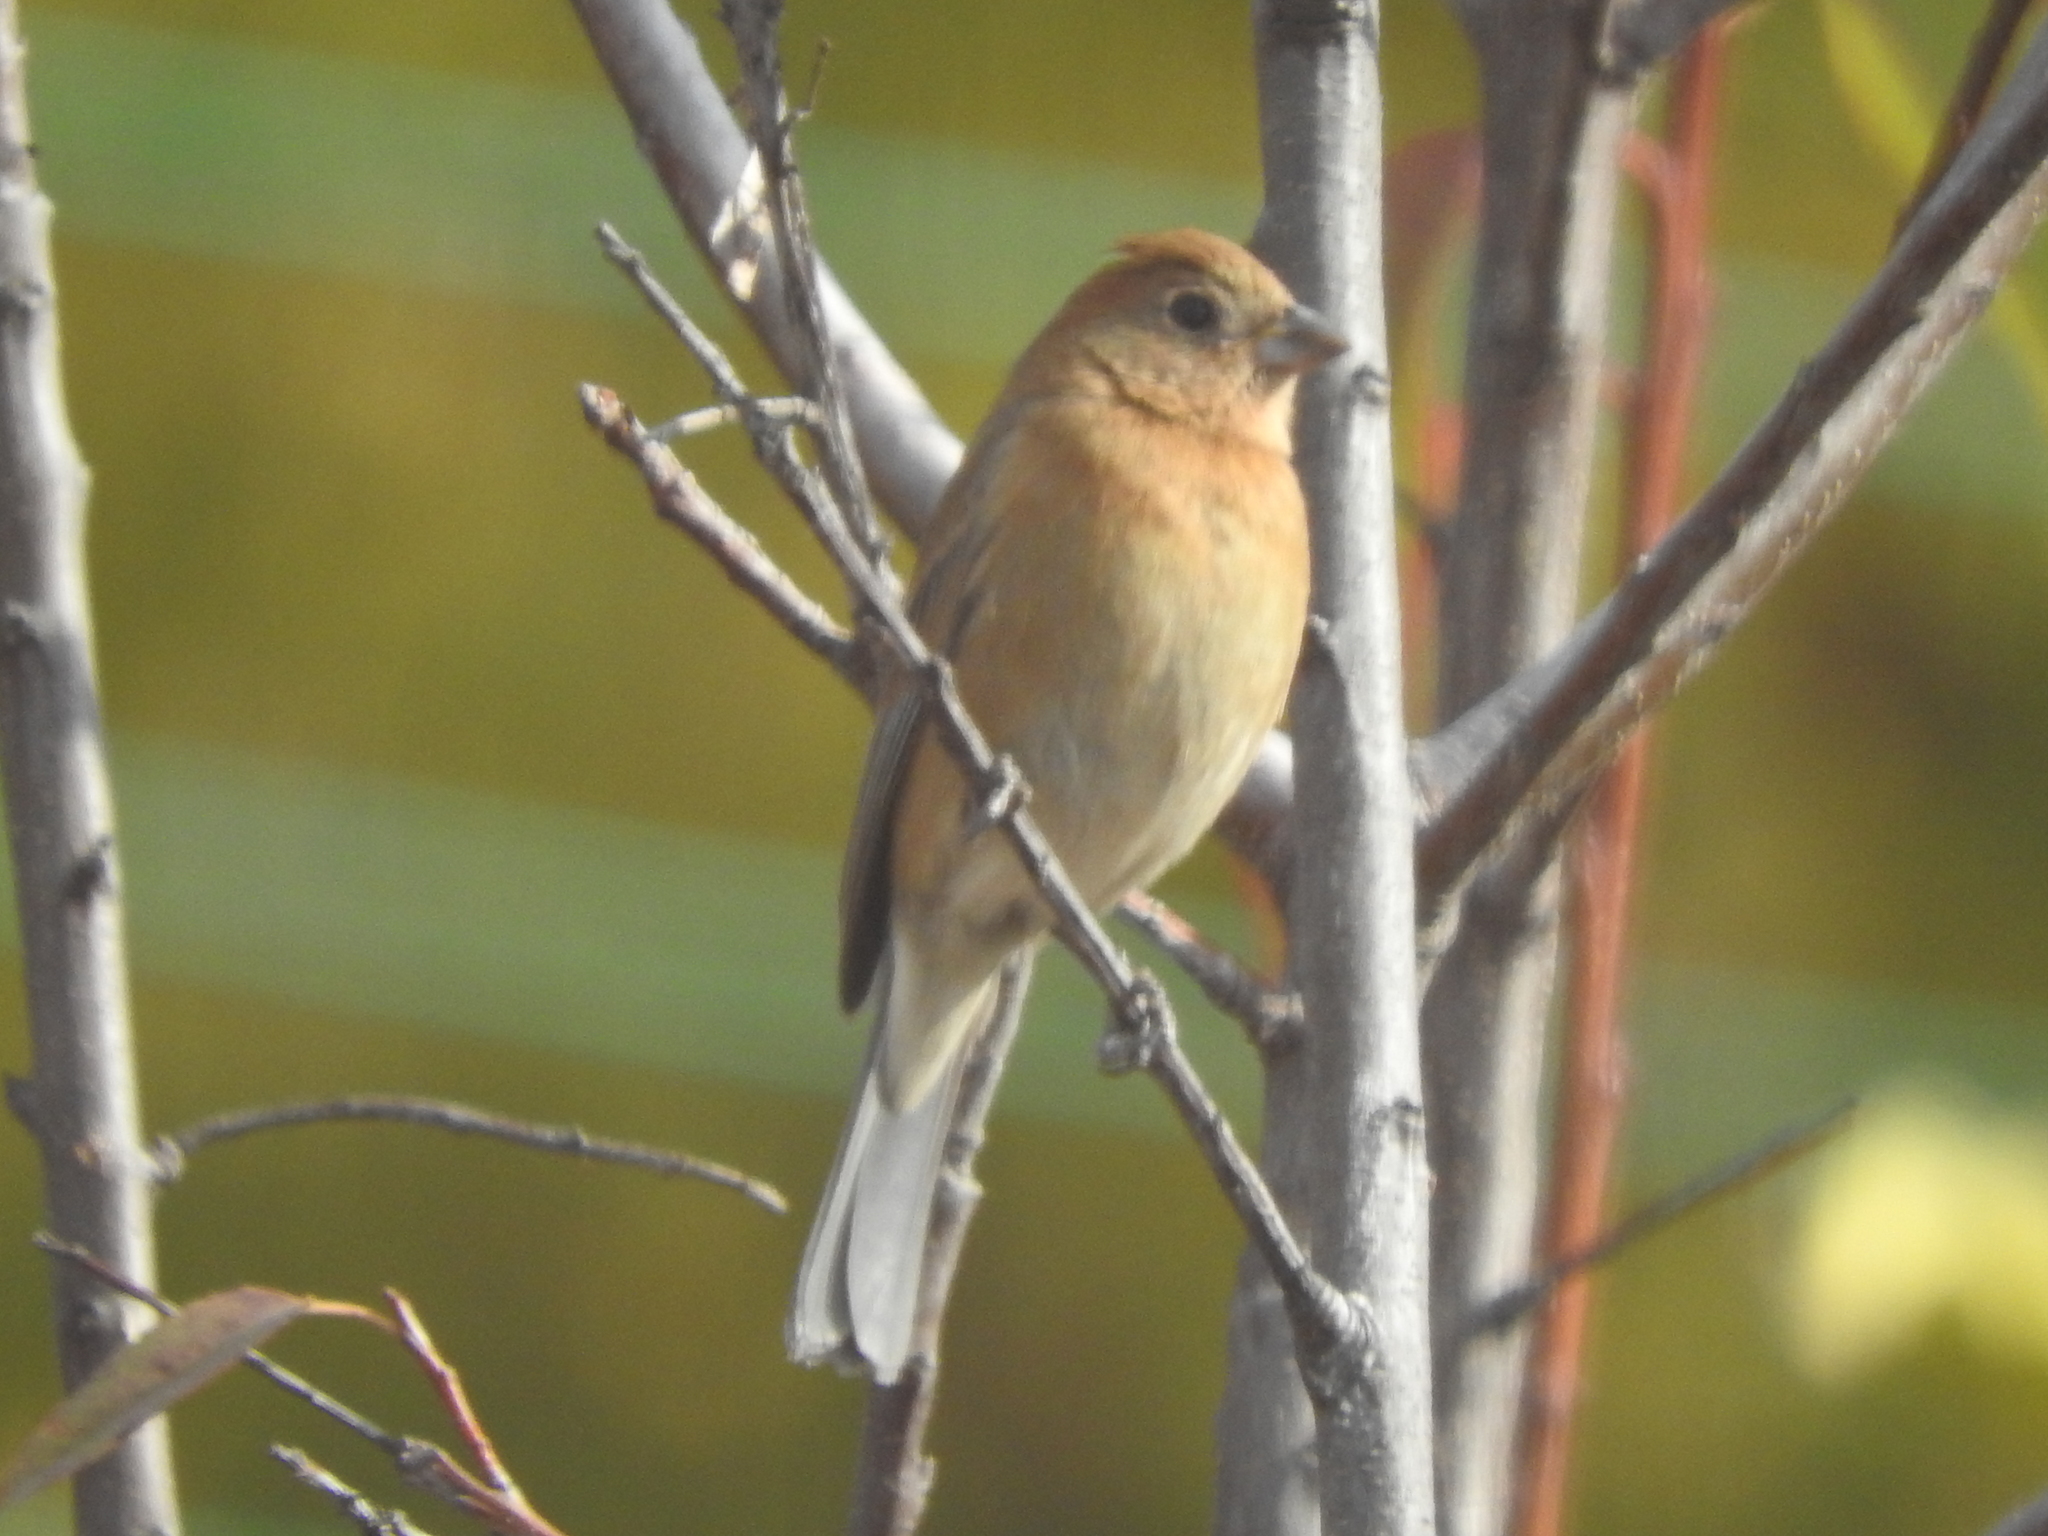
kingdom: Animalia
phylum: Chordata
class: Aves
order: Passeriformes
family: Cardinalidae
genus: Passerina
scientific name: Passerina versicolor
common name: Varied bunting
